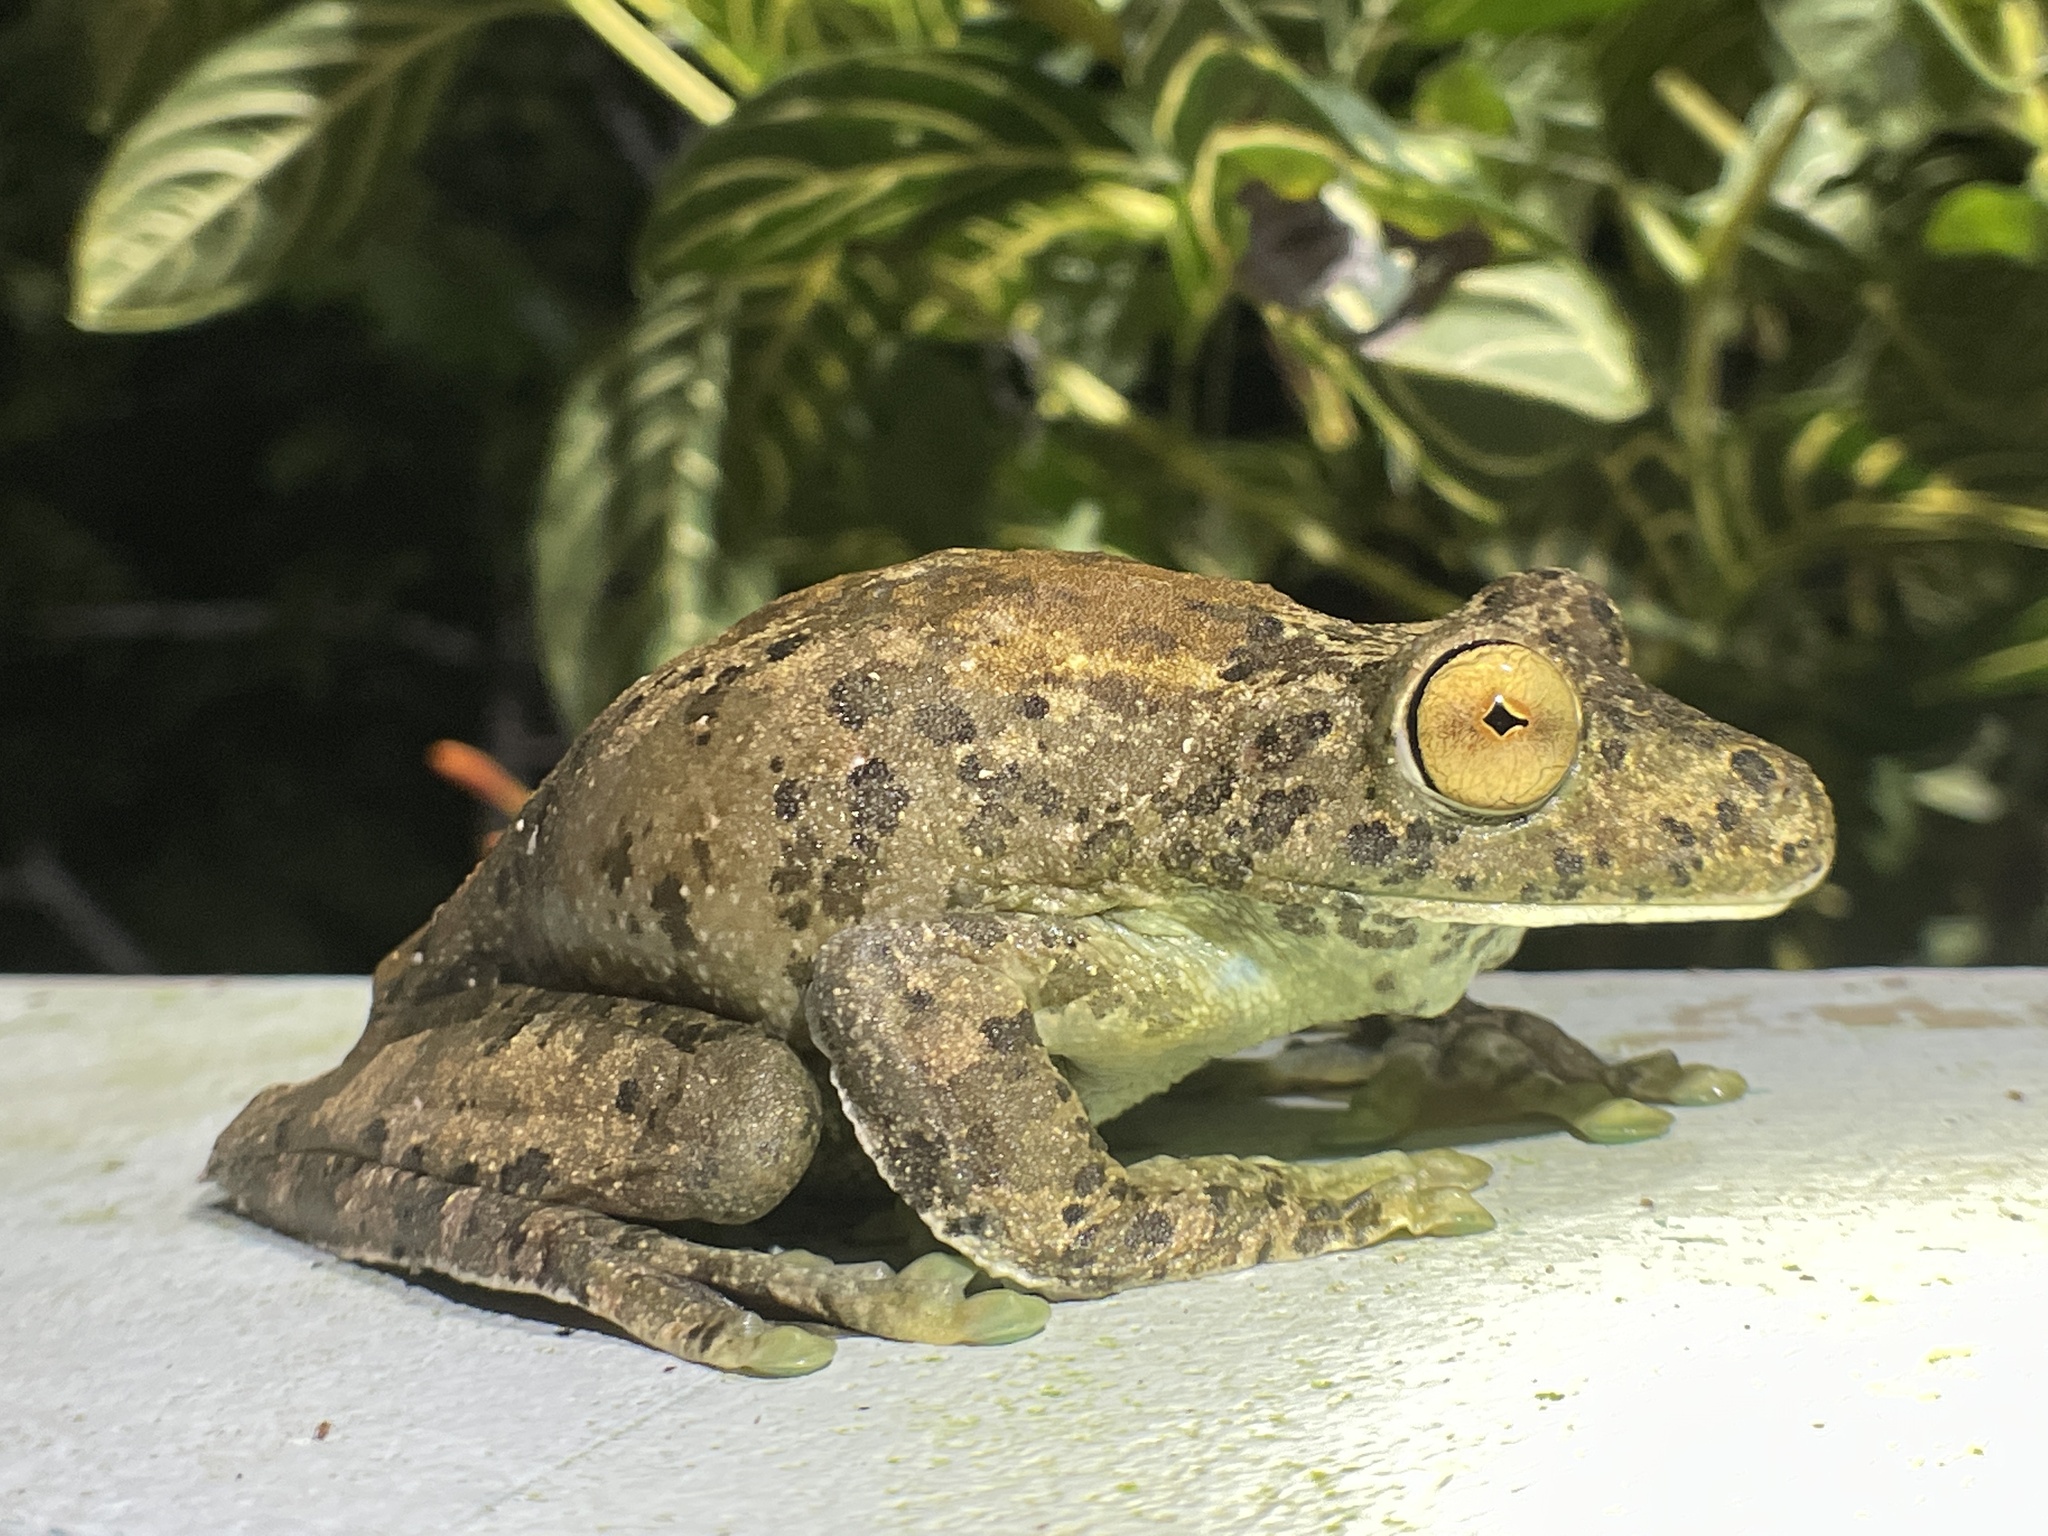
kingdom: Animalia
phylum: Chordata
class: Amphibia
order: Anura
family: Hylidae
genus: Boana
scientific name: Boana boans
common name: Giant gladiator treefrog
